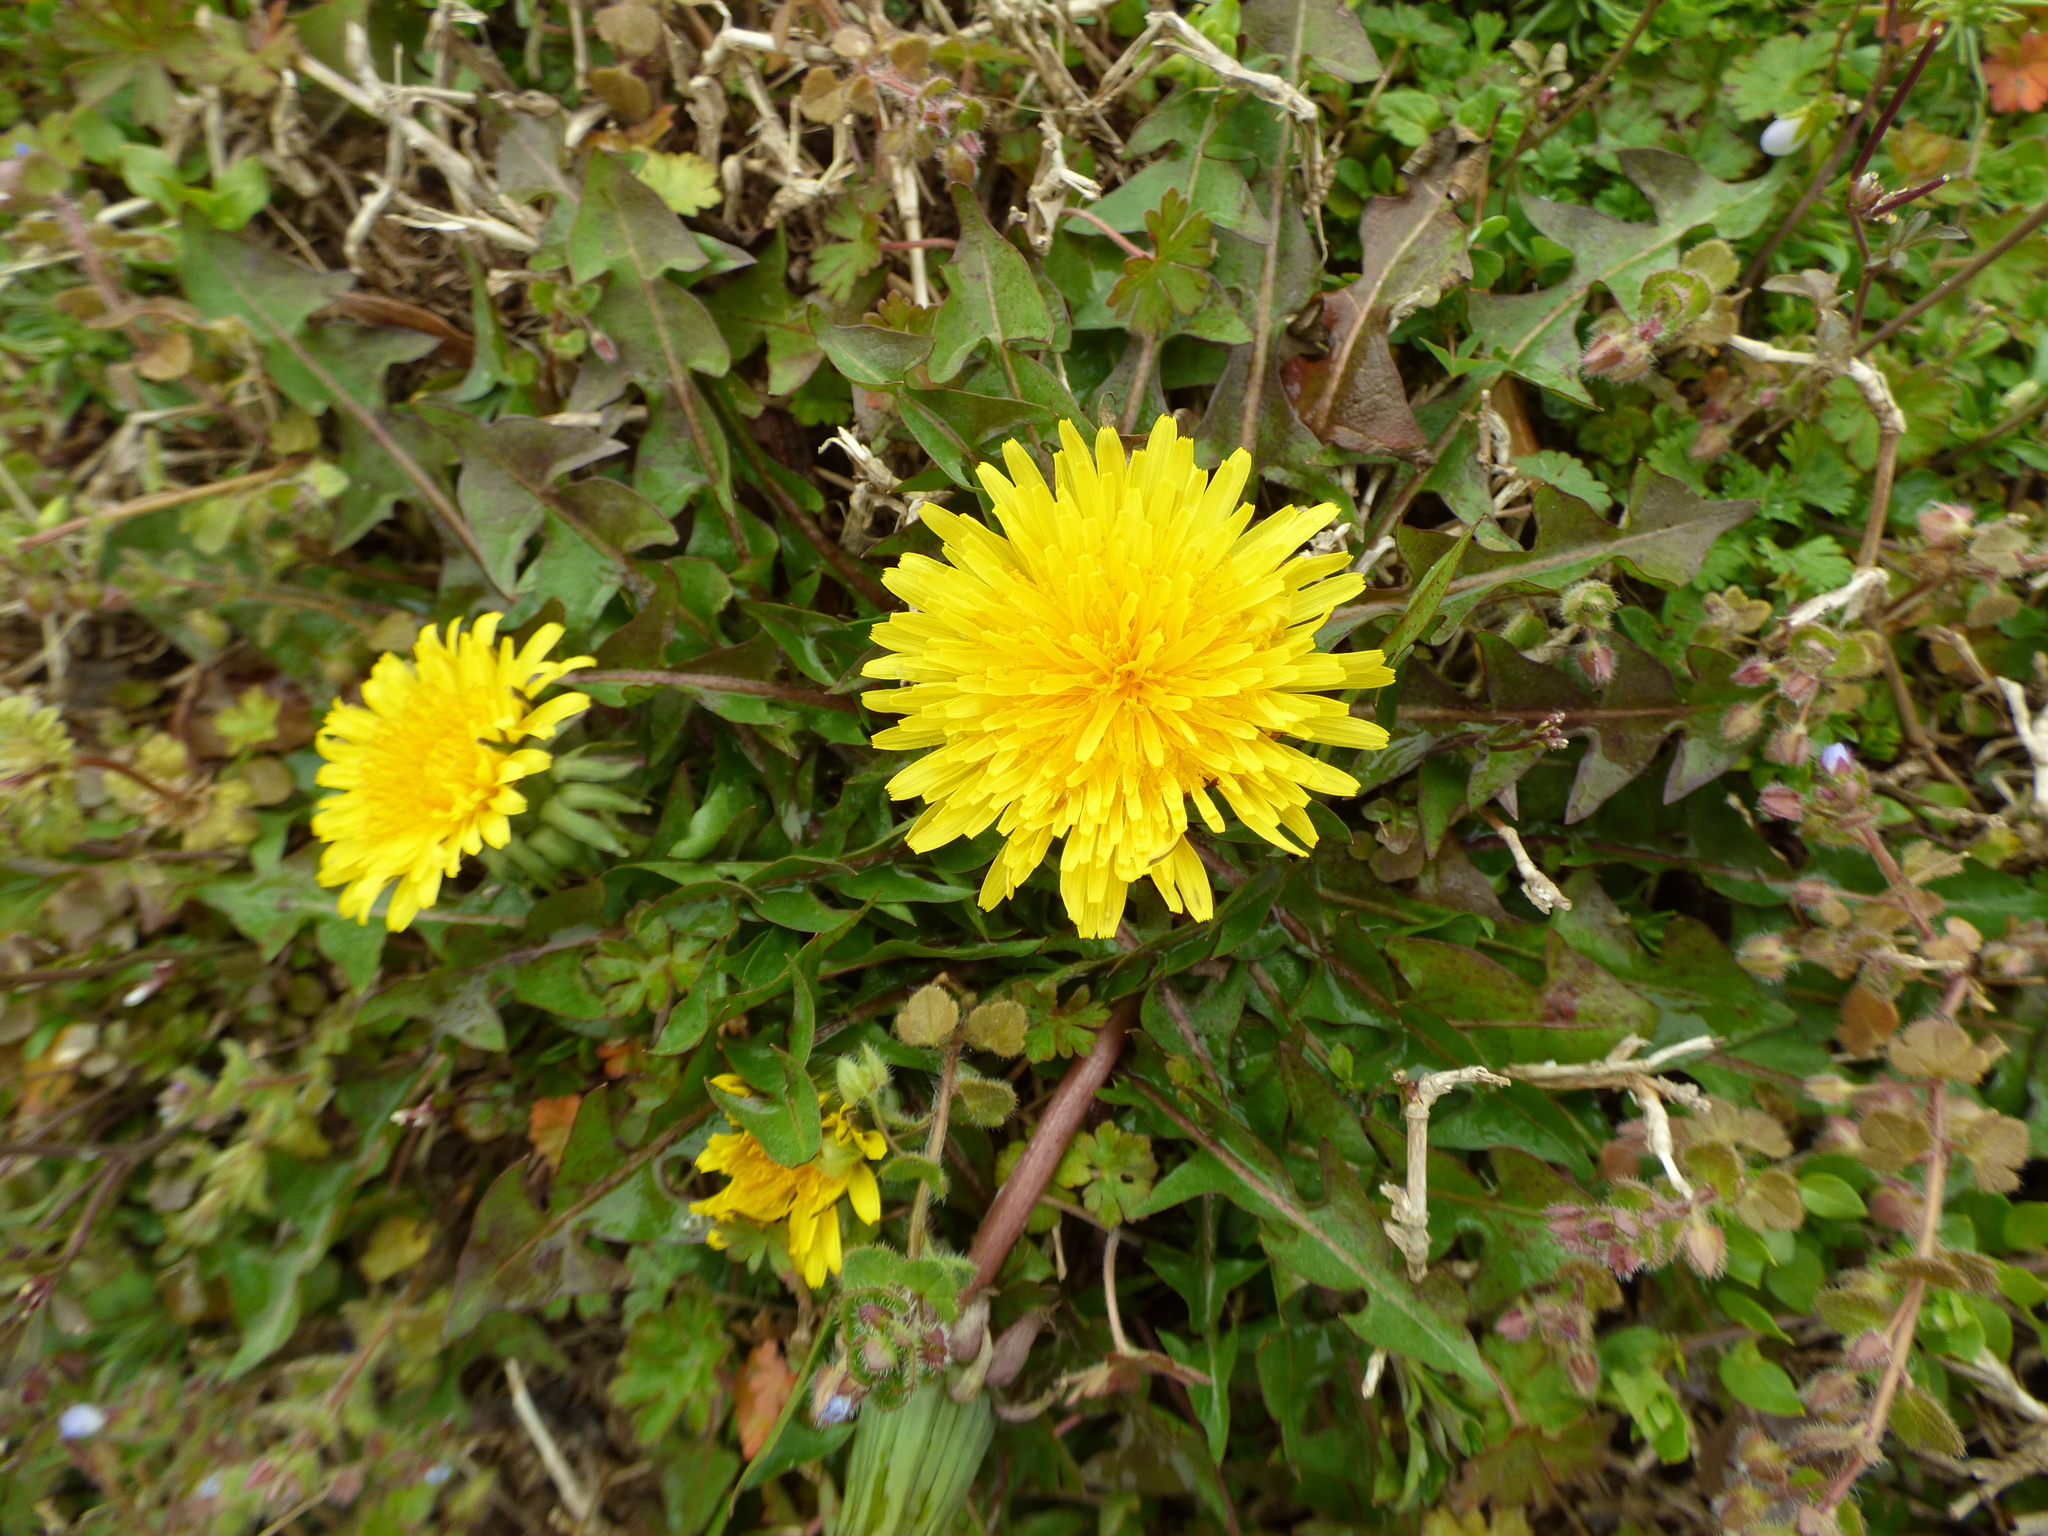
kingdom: Plantae
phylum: Tracheophyta
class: Magnoliopsida
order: Asterales
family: Asteraceae
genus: Taraxacum
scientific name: Taraxacum officinale
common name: Common dandelion
